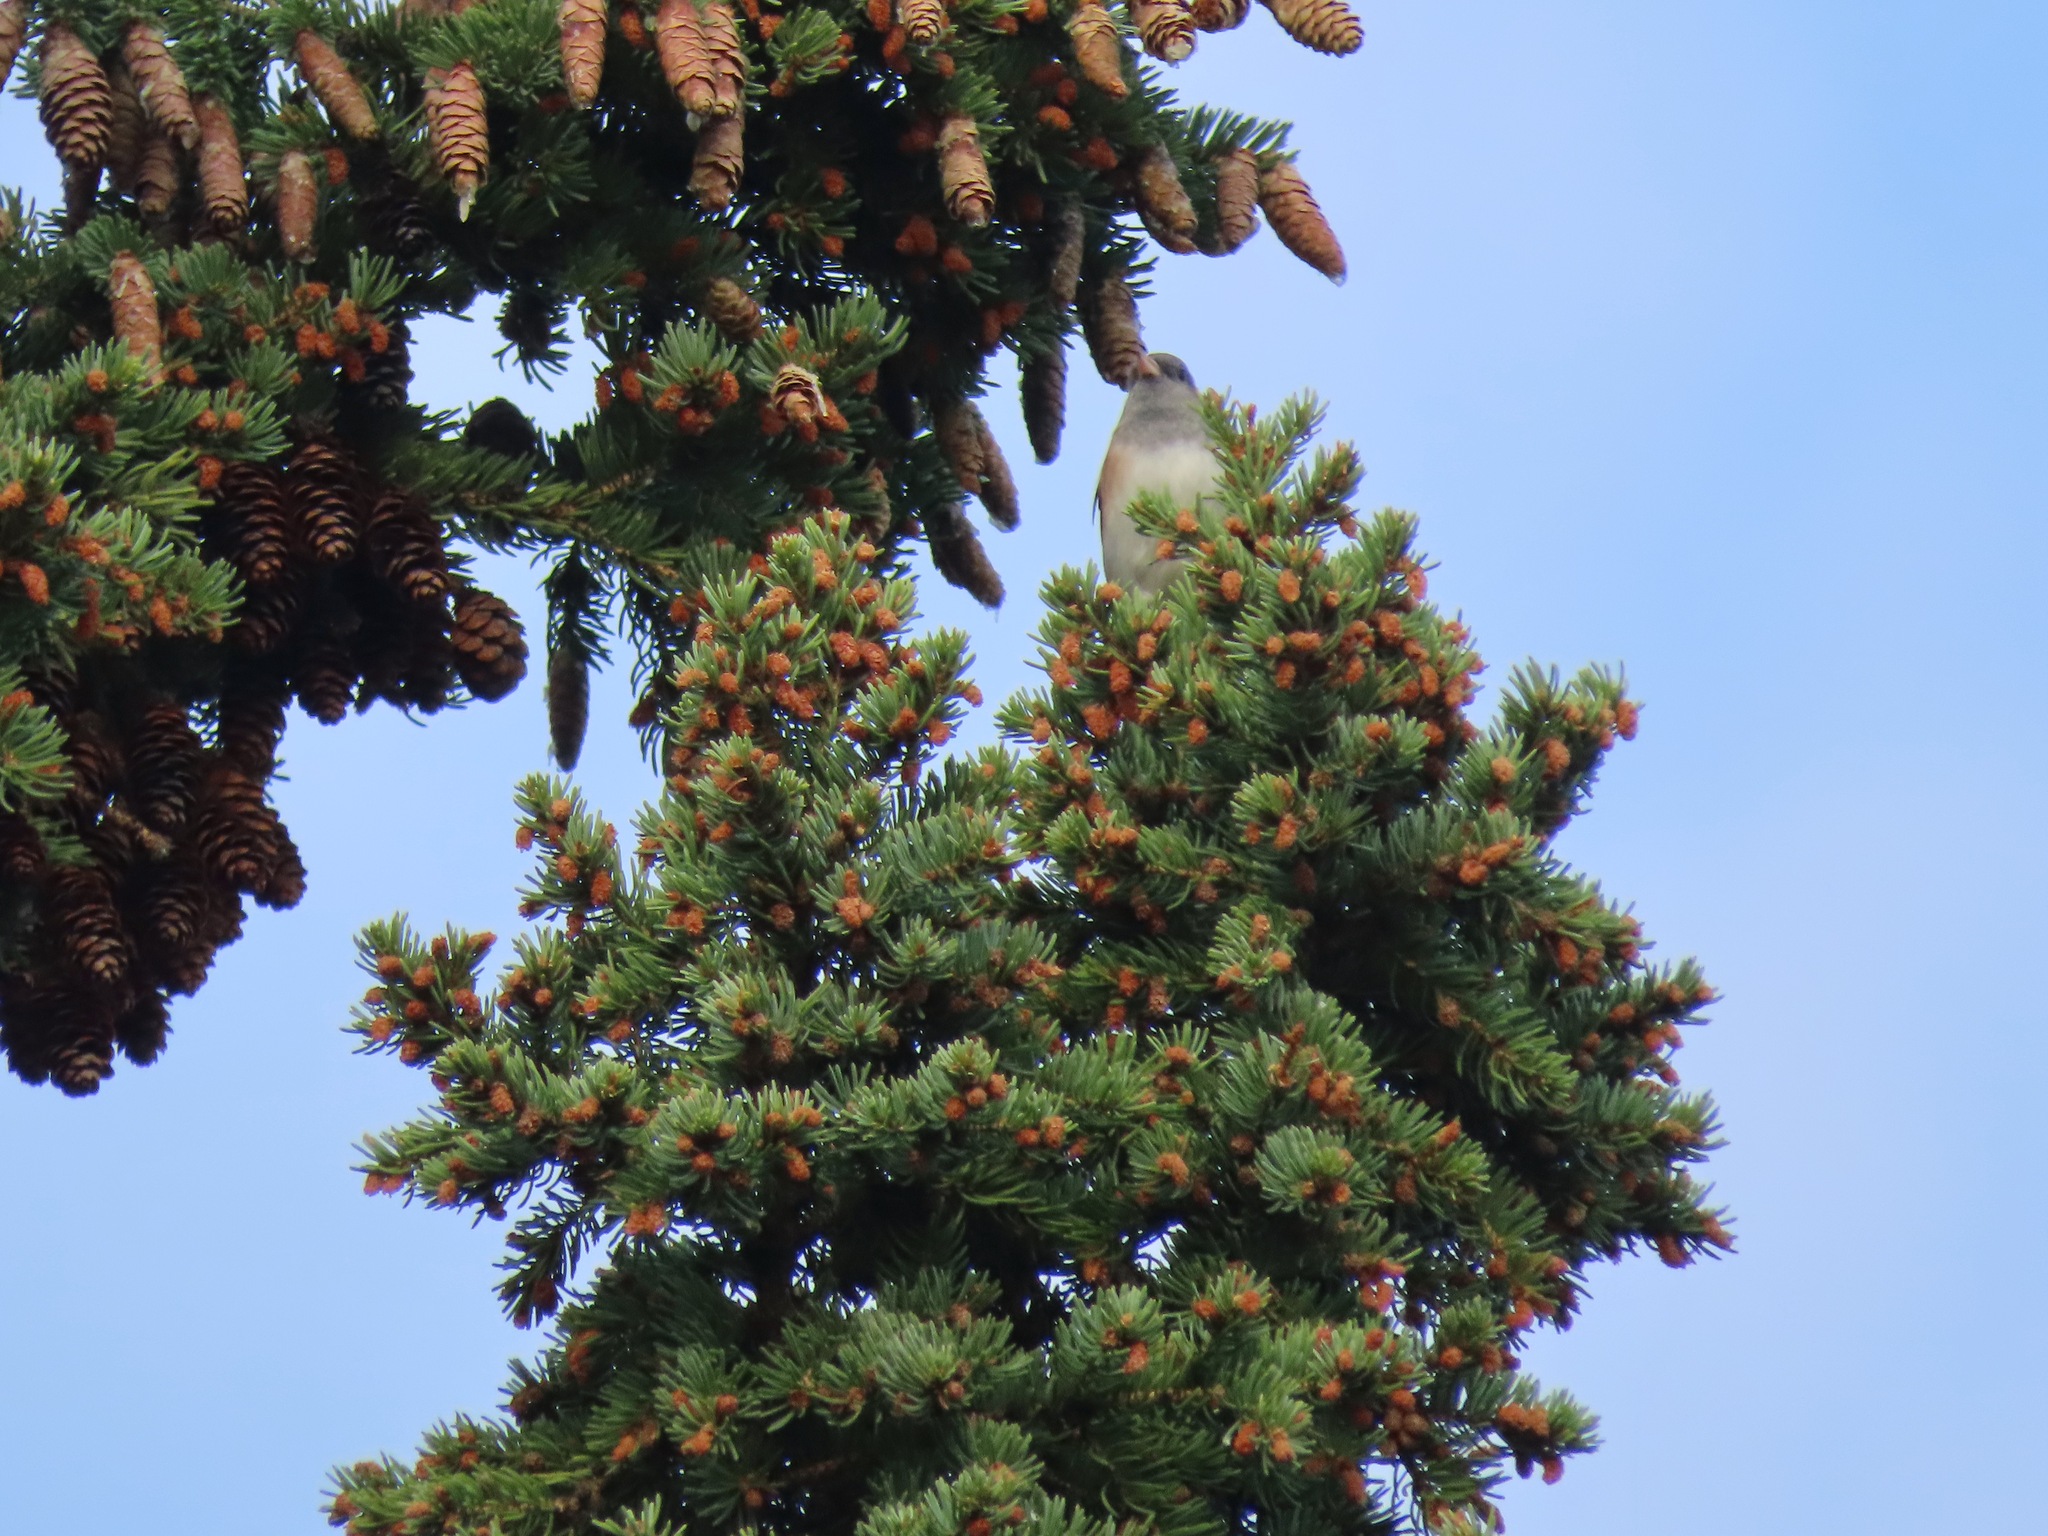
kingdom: Animalia
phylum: Chordata
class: Aves
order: Passeriformes
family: Passerellidae
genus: Junco
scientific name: Junco hyemalis
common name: Dark-eyed junco
